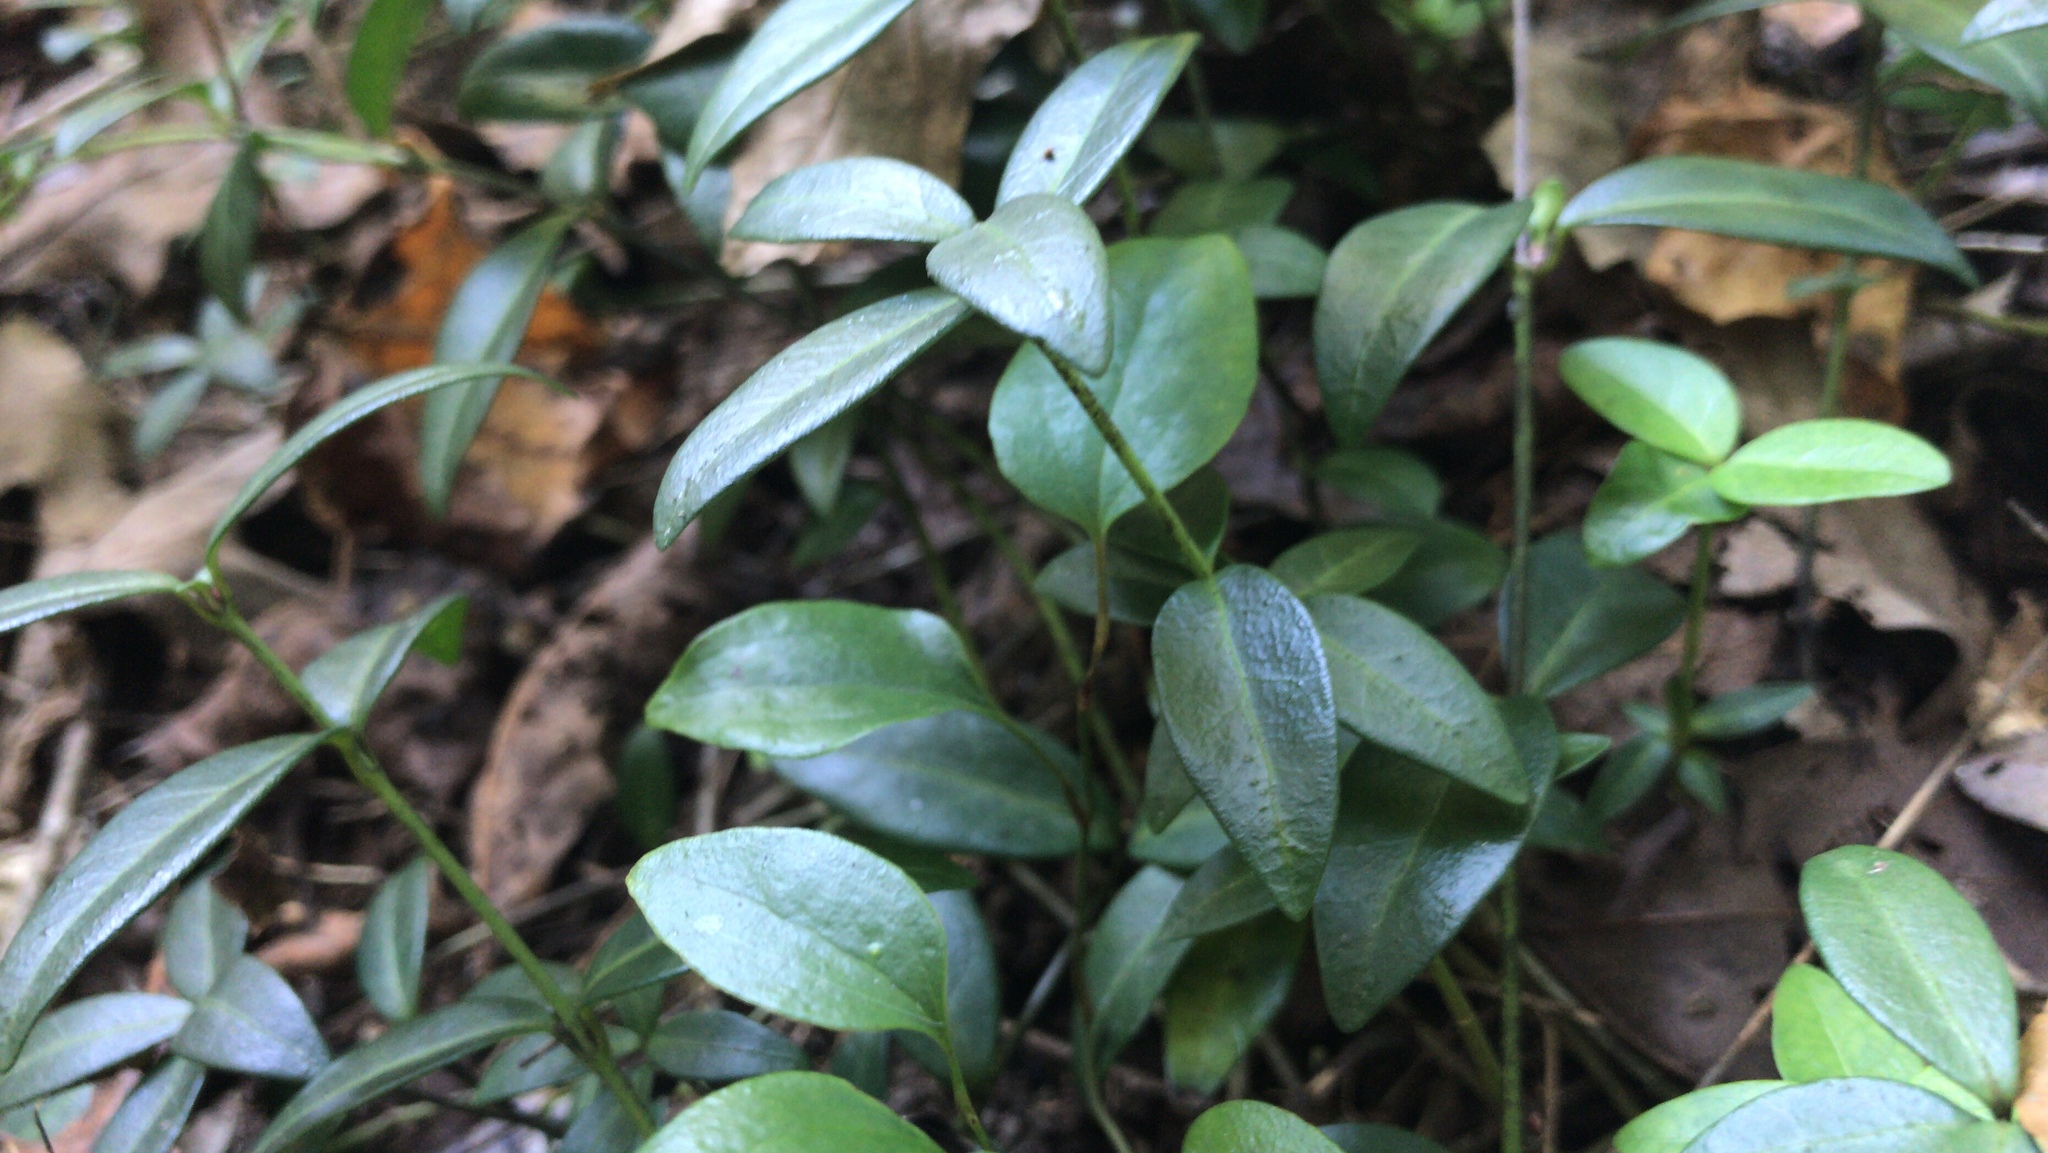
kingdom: Plantae
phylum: Tracheophyta
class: Magnoliopsida
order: Gentianales
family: Apocynaceae
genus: Vinca
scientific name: Vinca minor
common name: Lesser periwinkle
